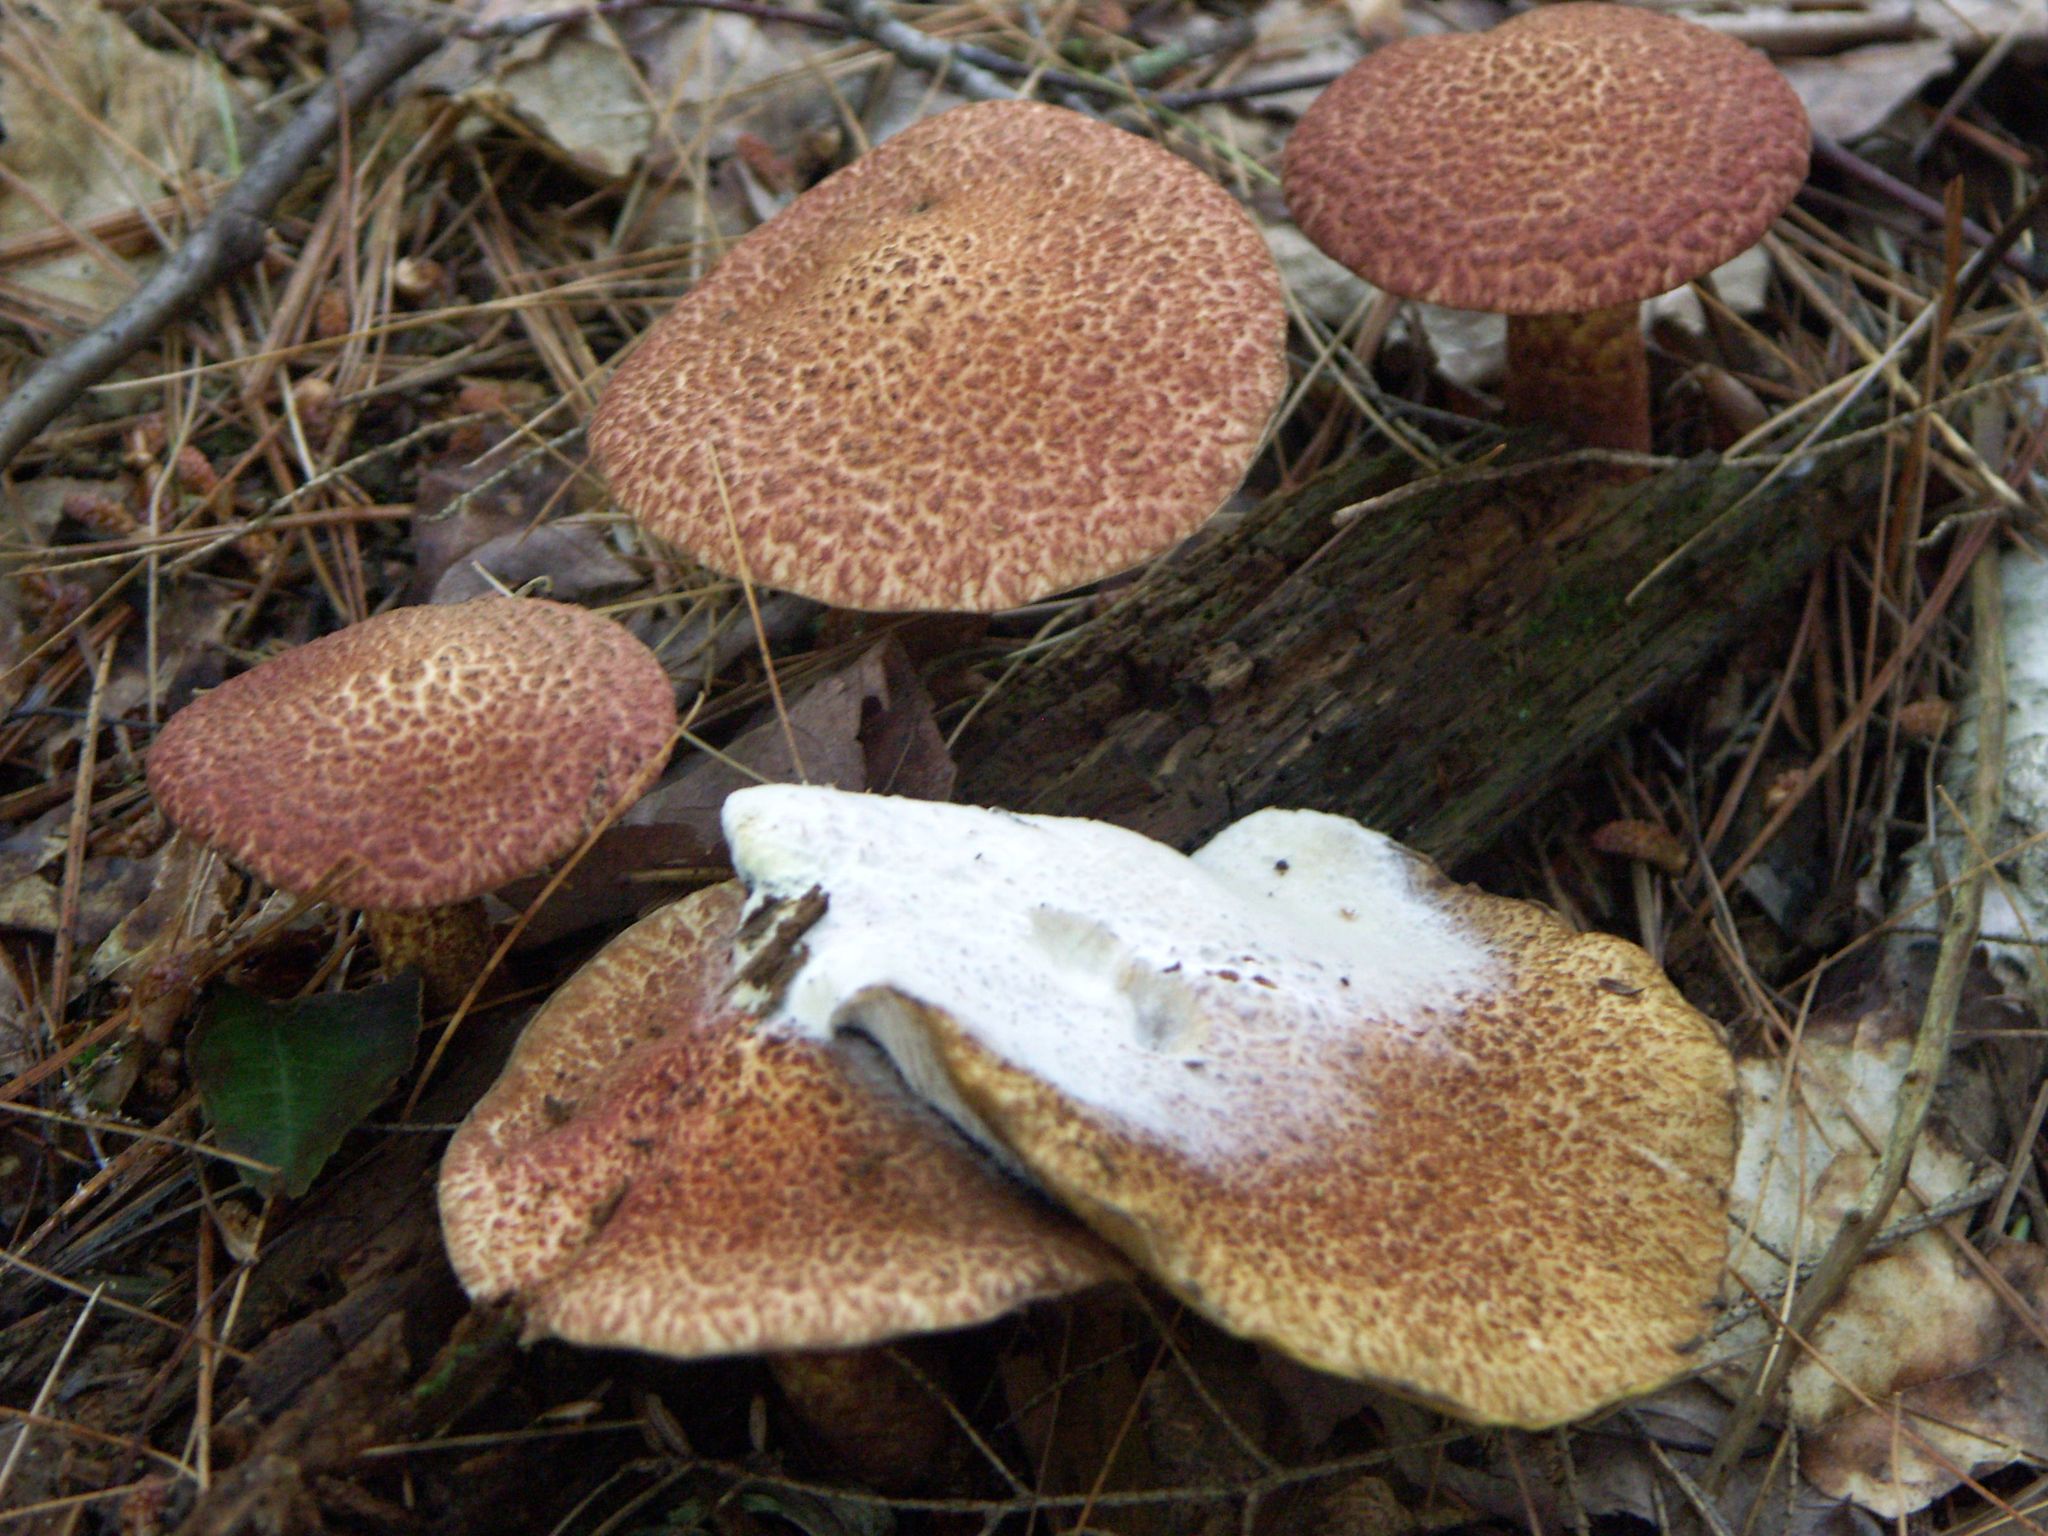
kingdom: Fungi
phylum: Ascomycota
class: Sordariomycetes
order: Hypocreales
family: Hypocreaceae
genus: Hypomyces
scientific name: Hypomyces completus
